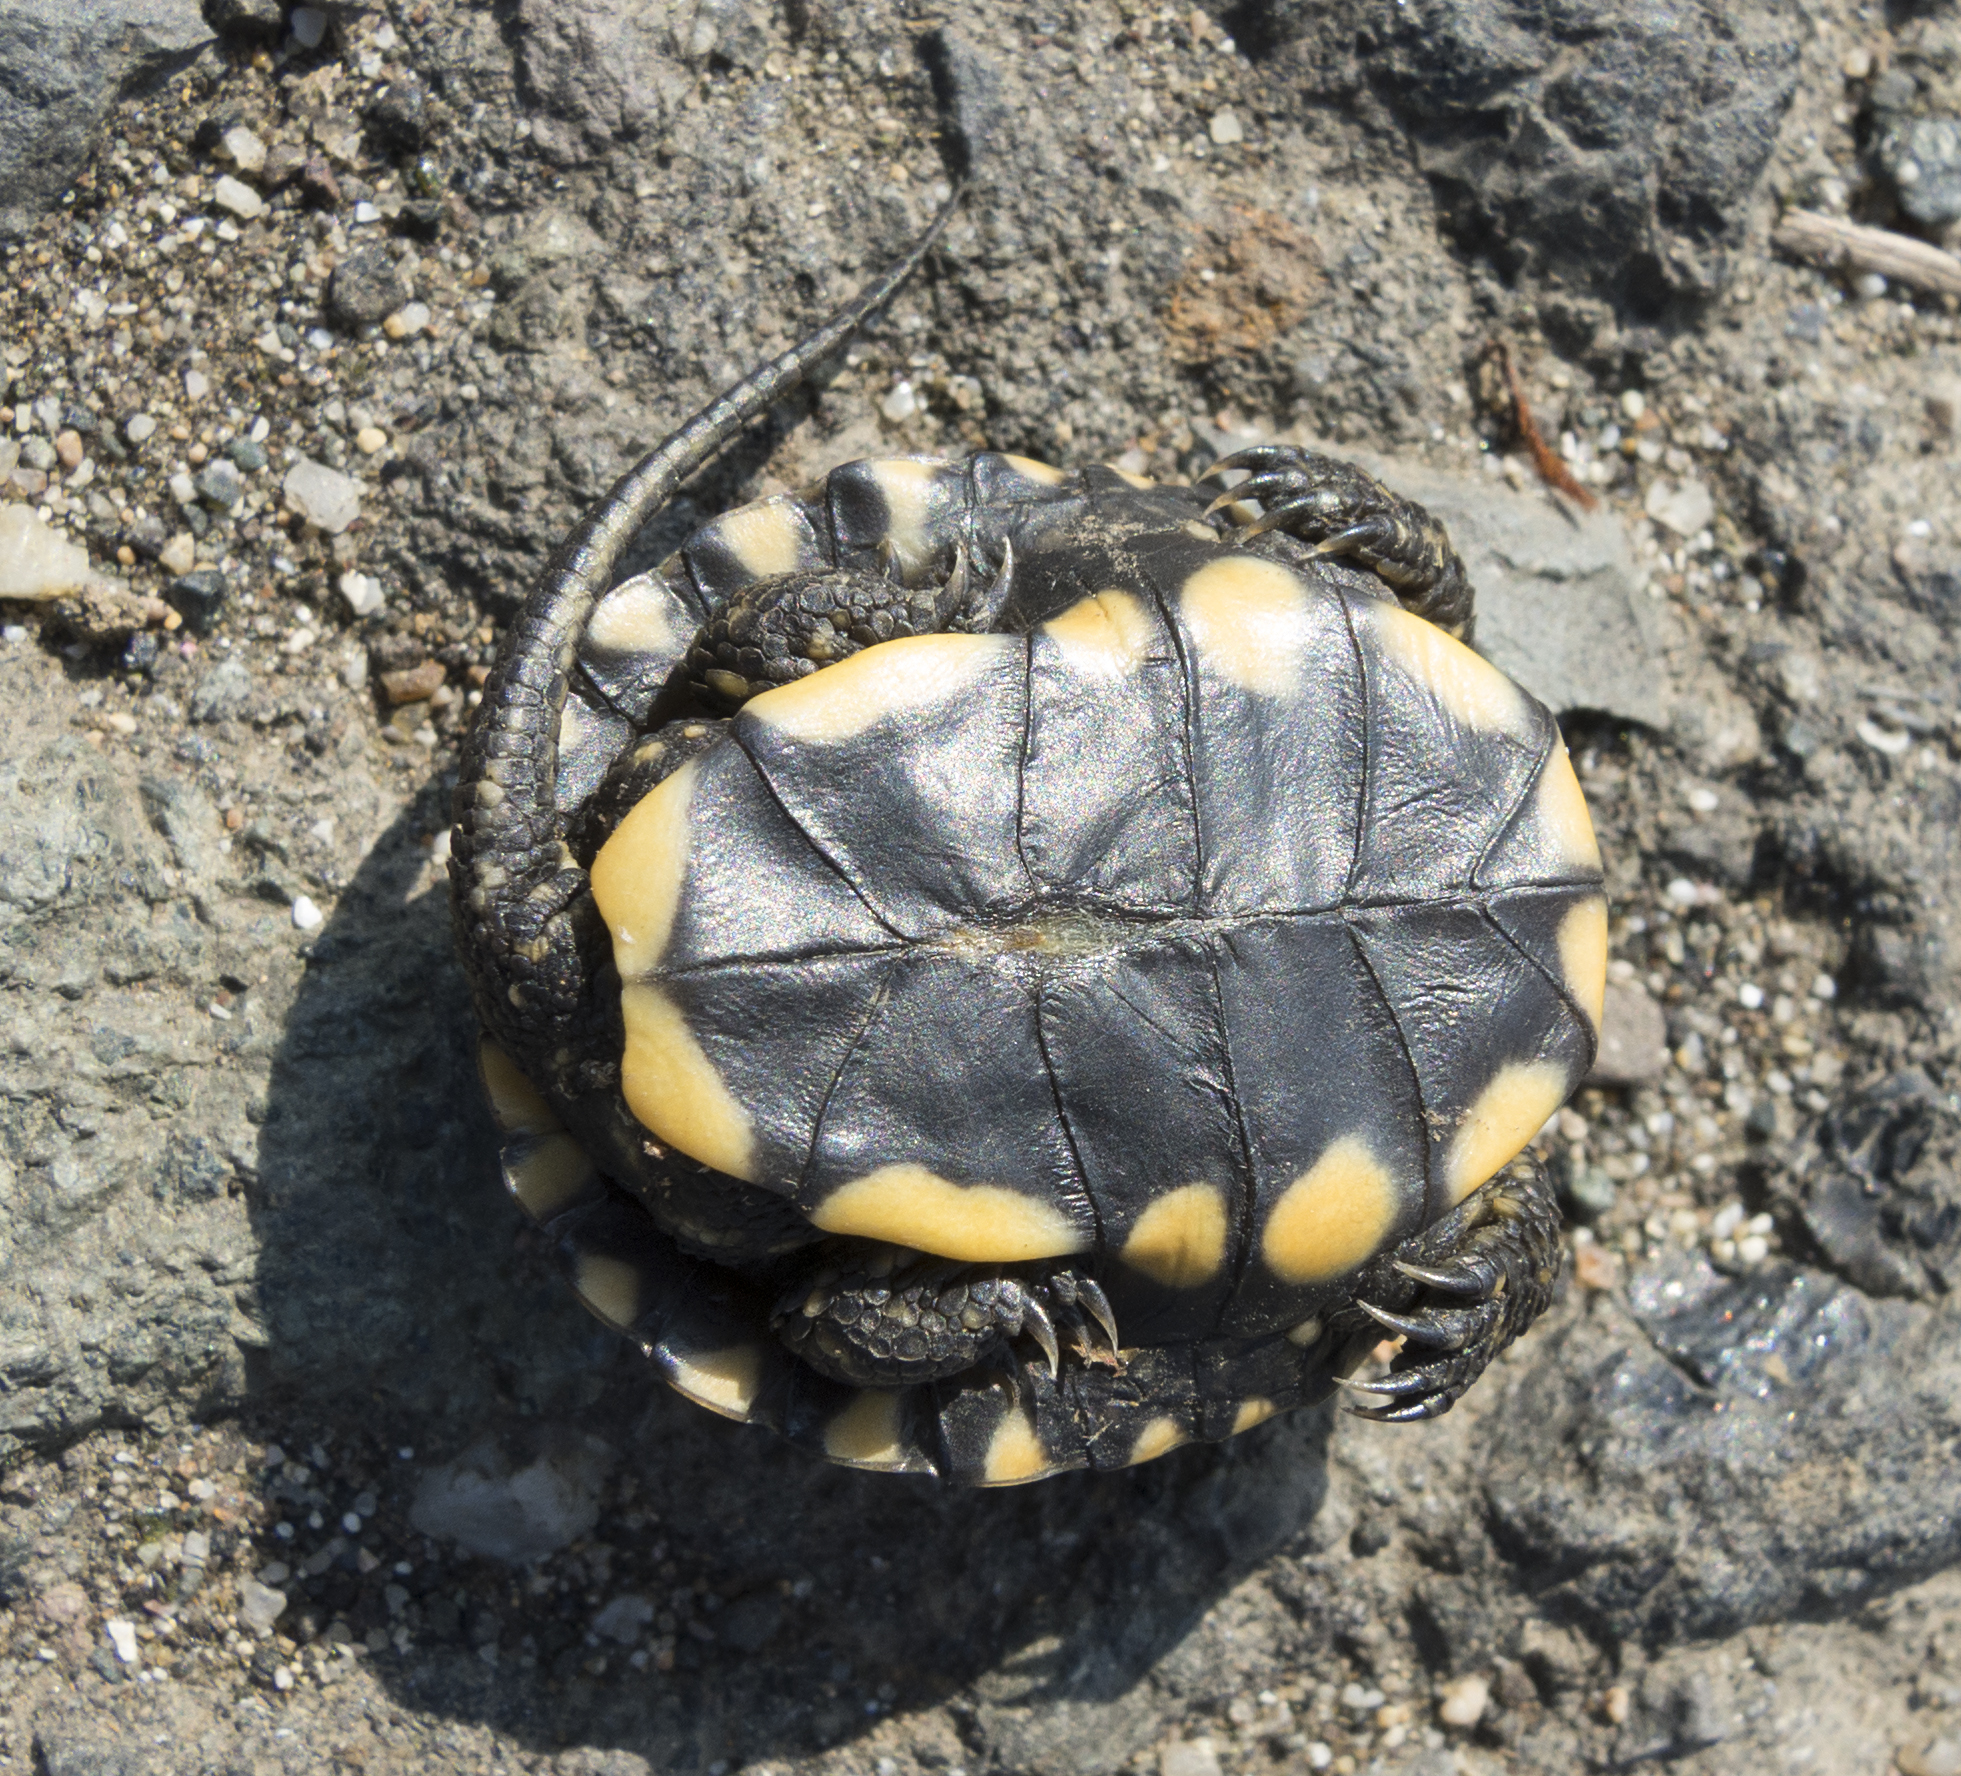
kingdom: Animalia
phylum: Chordata
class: Testudines
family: Emydidae
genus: Emys
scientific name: Emys orbicularis
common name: European pond turtle
